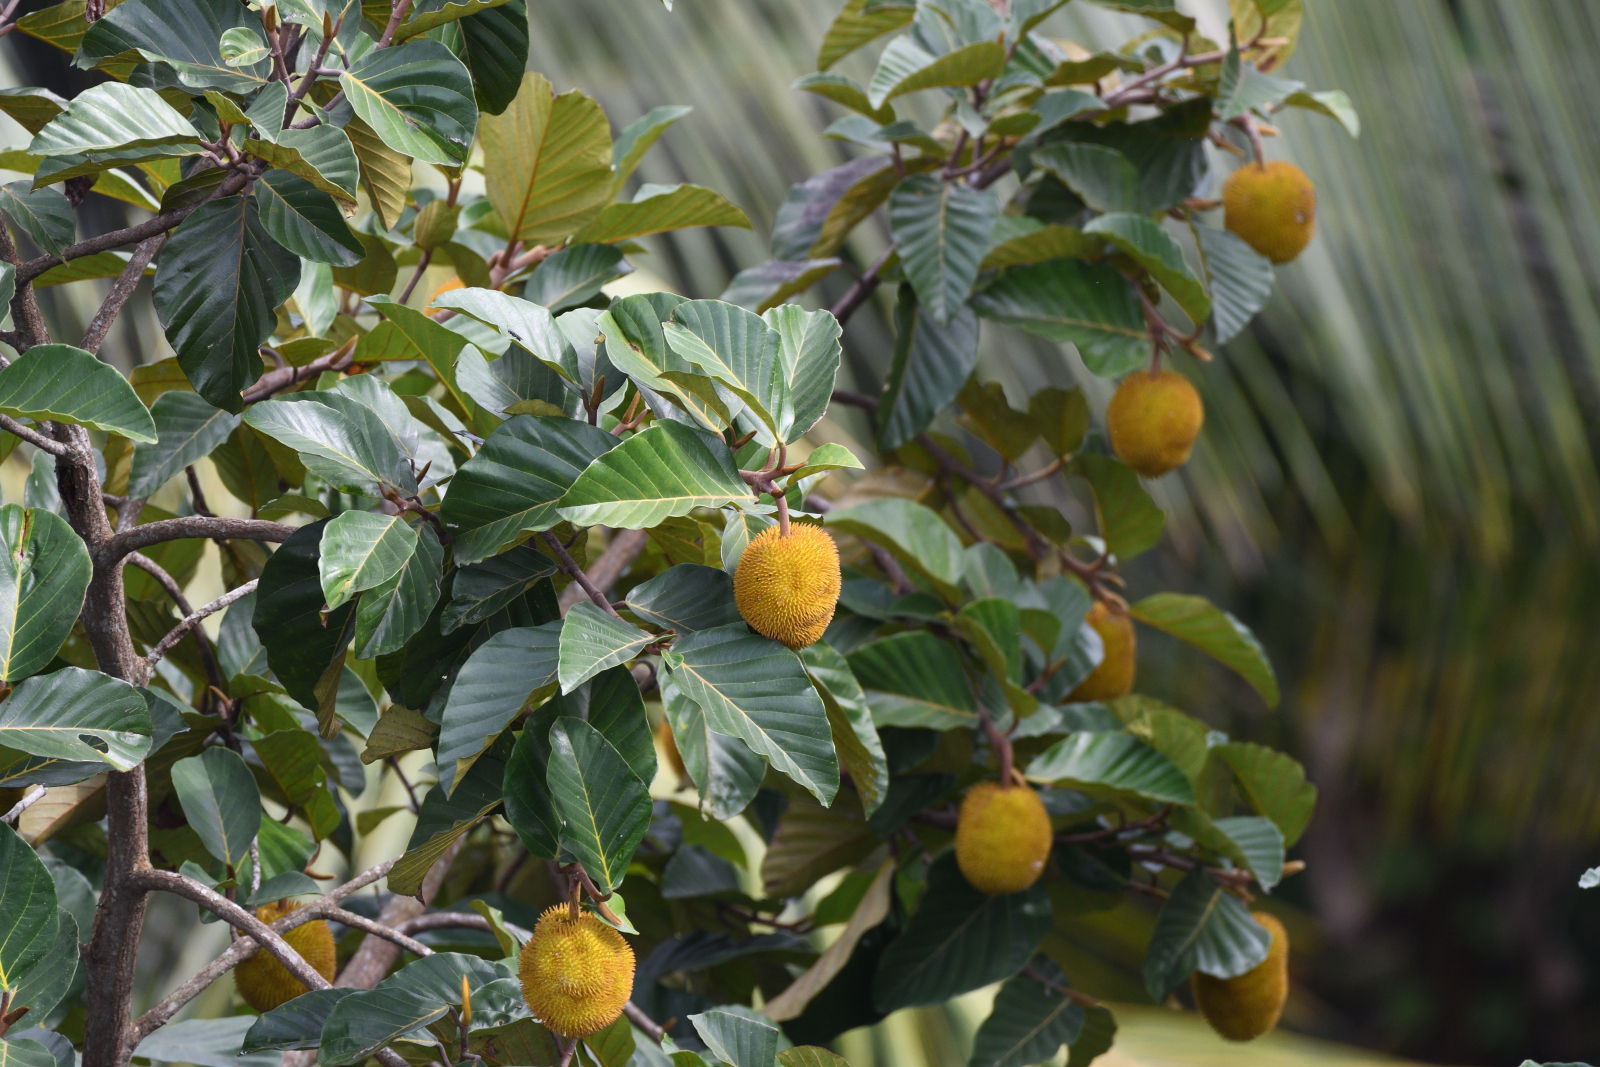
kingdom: Plantae
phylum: Tracheophyta
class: Magnoliopsida
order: Rosales
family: Moraceae
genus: Artocarpus
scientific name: Artocarpus hirsutus
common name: Hairy bread-fruit tree
